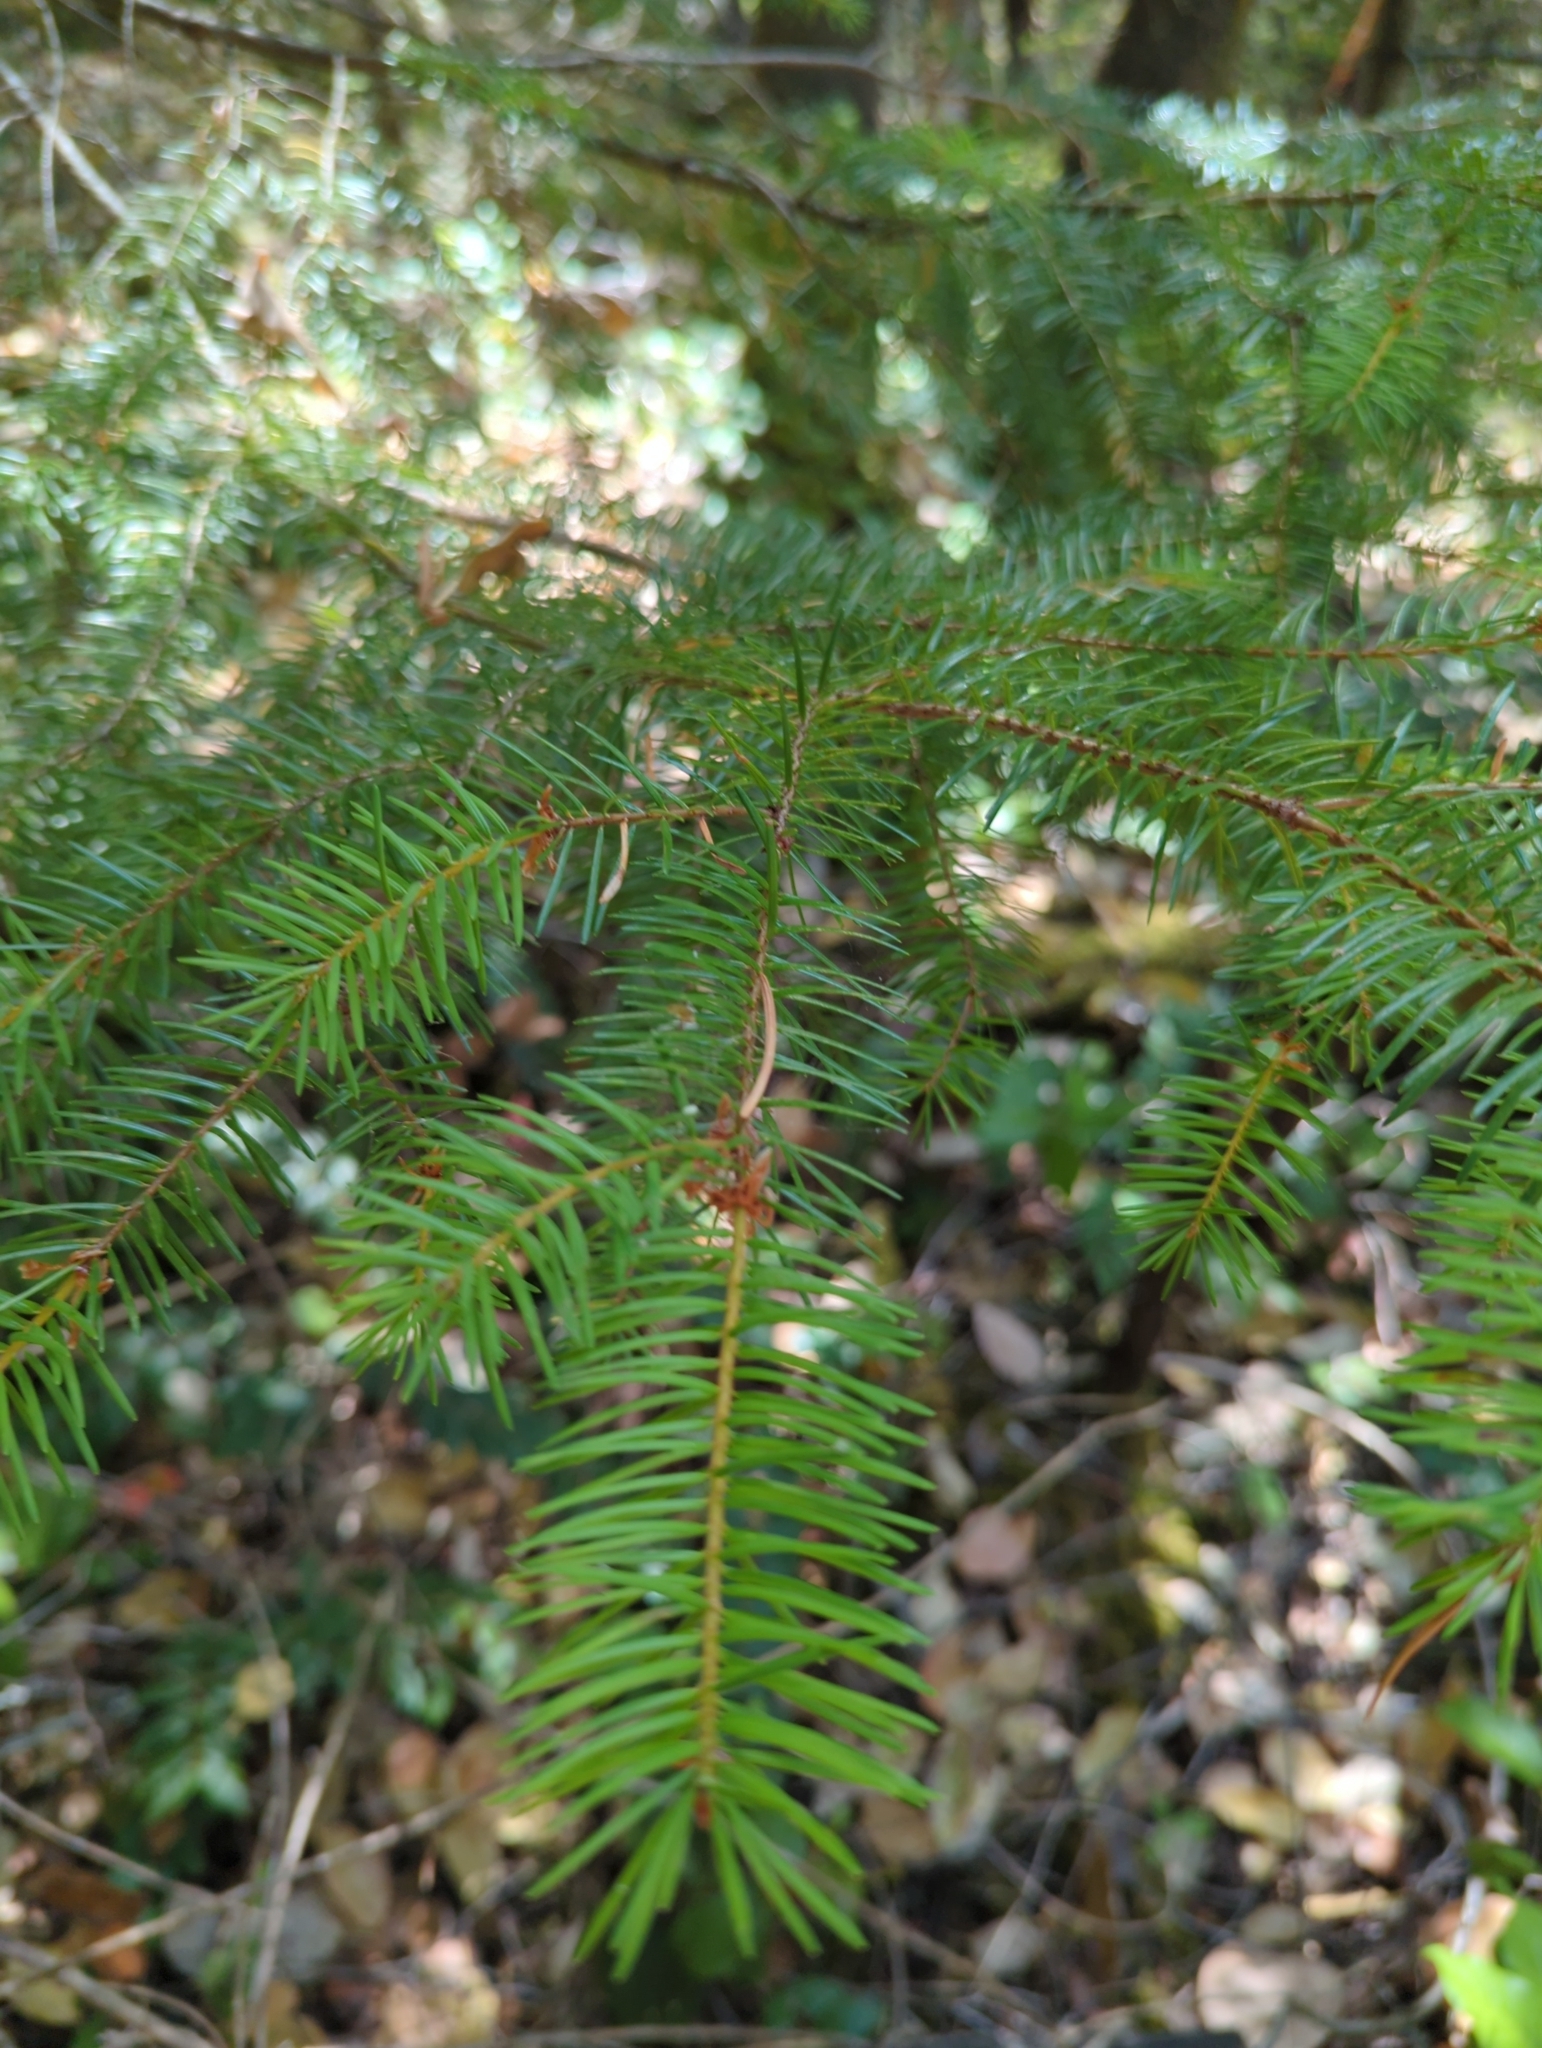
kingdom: Plantae
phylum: Tracheophyta
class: Pinopsida
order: Pinales
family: Pinaceae
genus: Pseudotsuga
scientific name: Pseudotsuga menziesii
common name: Douglas fir
